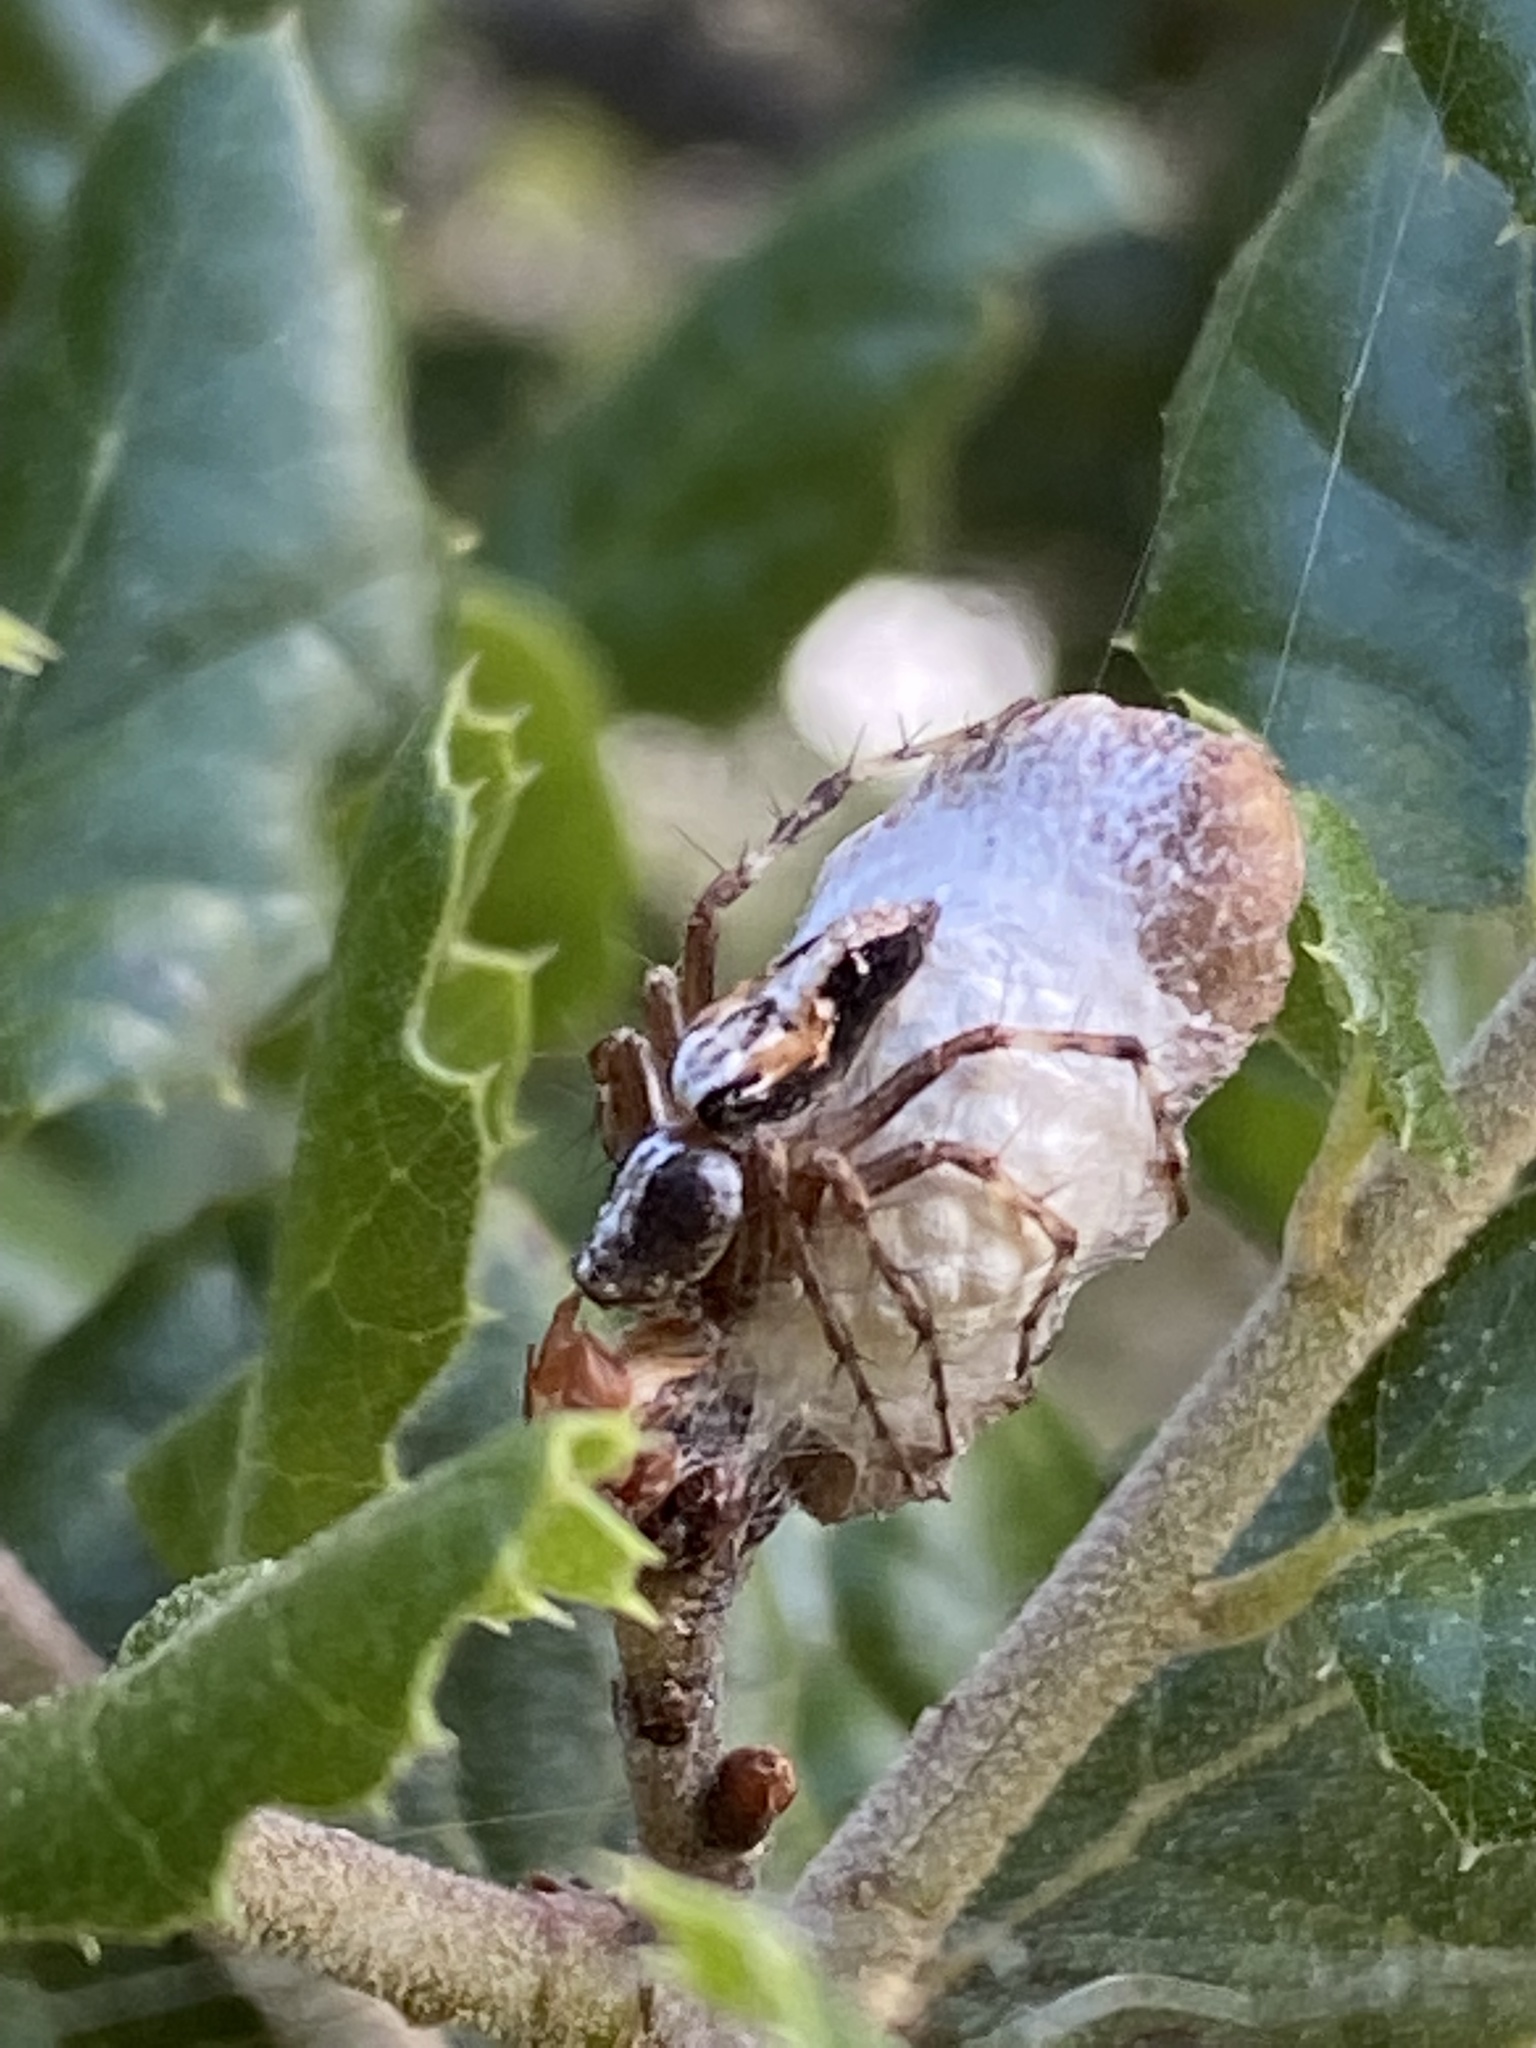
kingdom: Animalia
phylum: Arthropoda
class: Arachnida
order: Araneae
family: Oxyopidae
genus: Oxyopes
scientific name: Oxyopes scalaris
